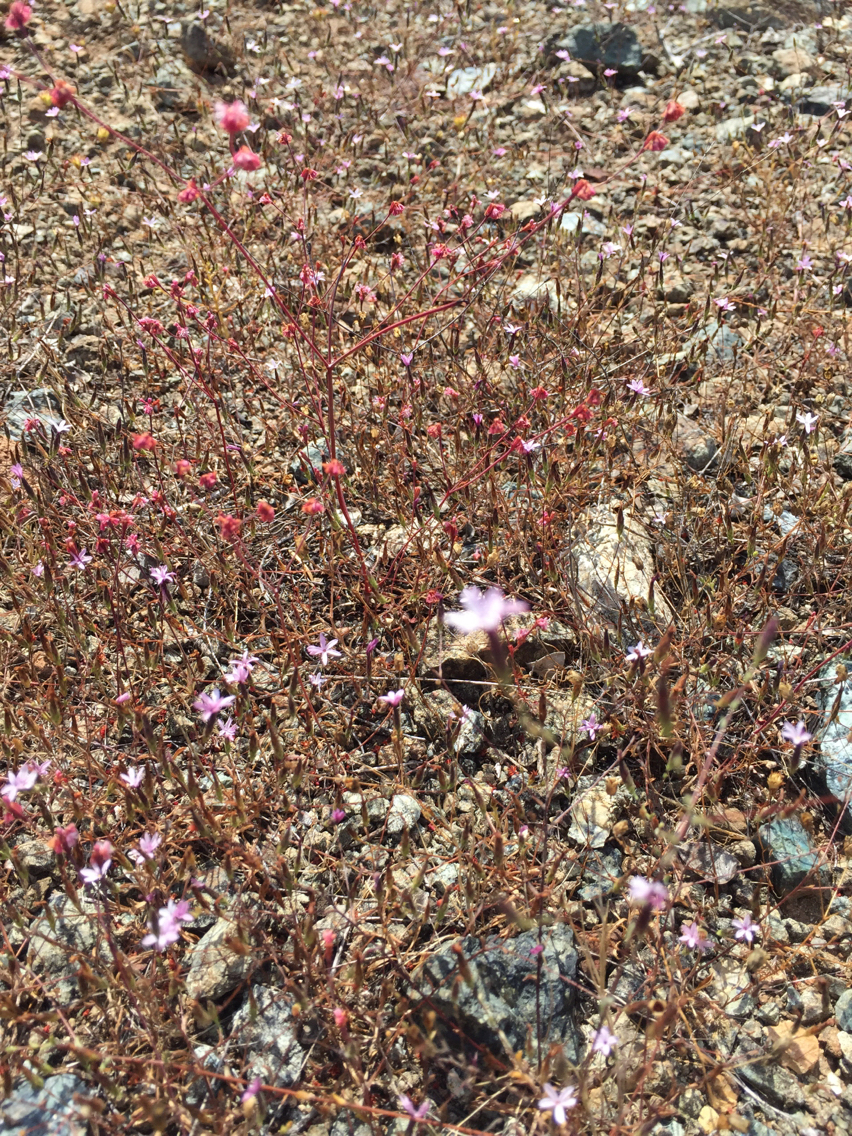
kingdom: Plantae
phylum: Tracheophyta
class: Magnoliopsida
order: Caryophyllales
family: Polygonaceae
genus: Eriogonum
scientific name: Eriogonum luteolum
